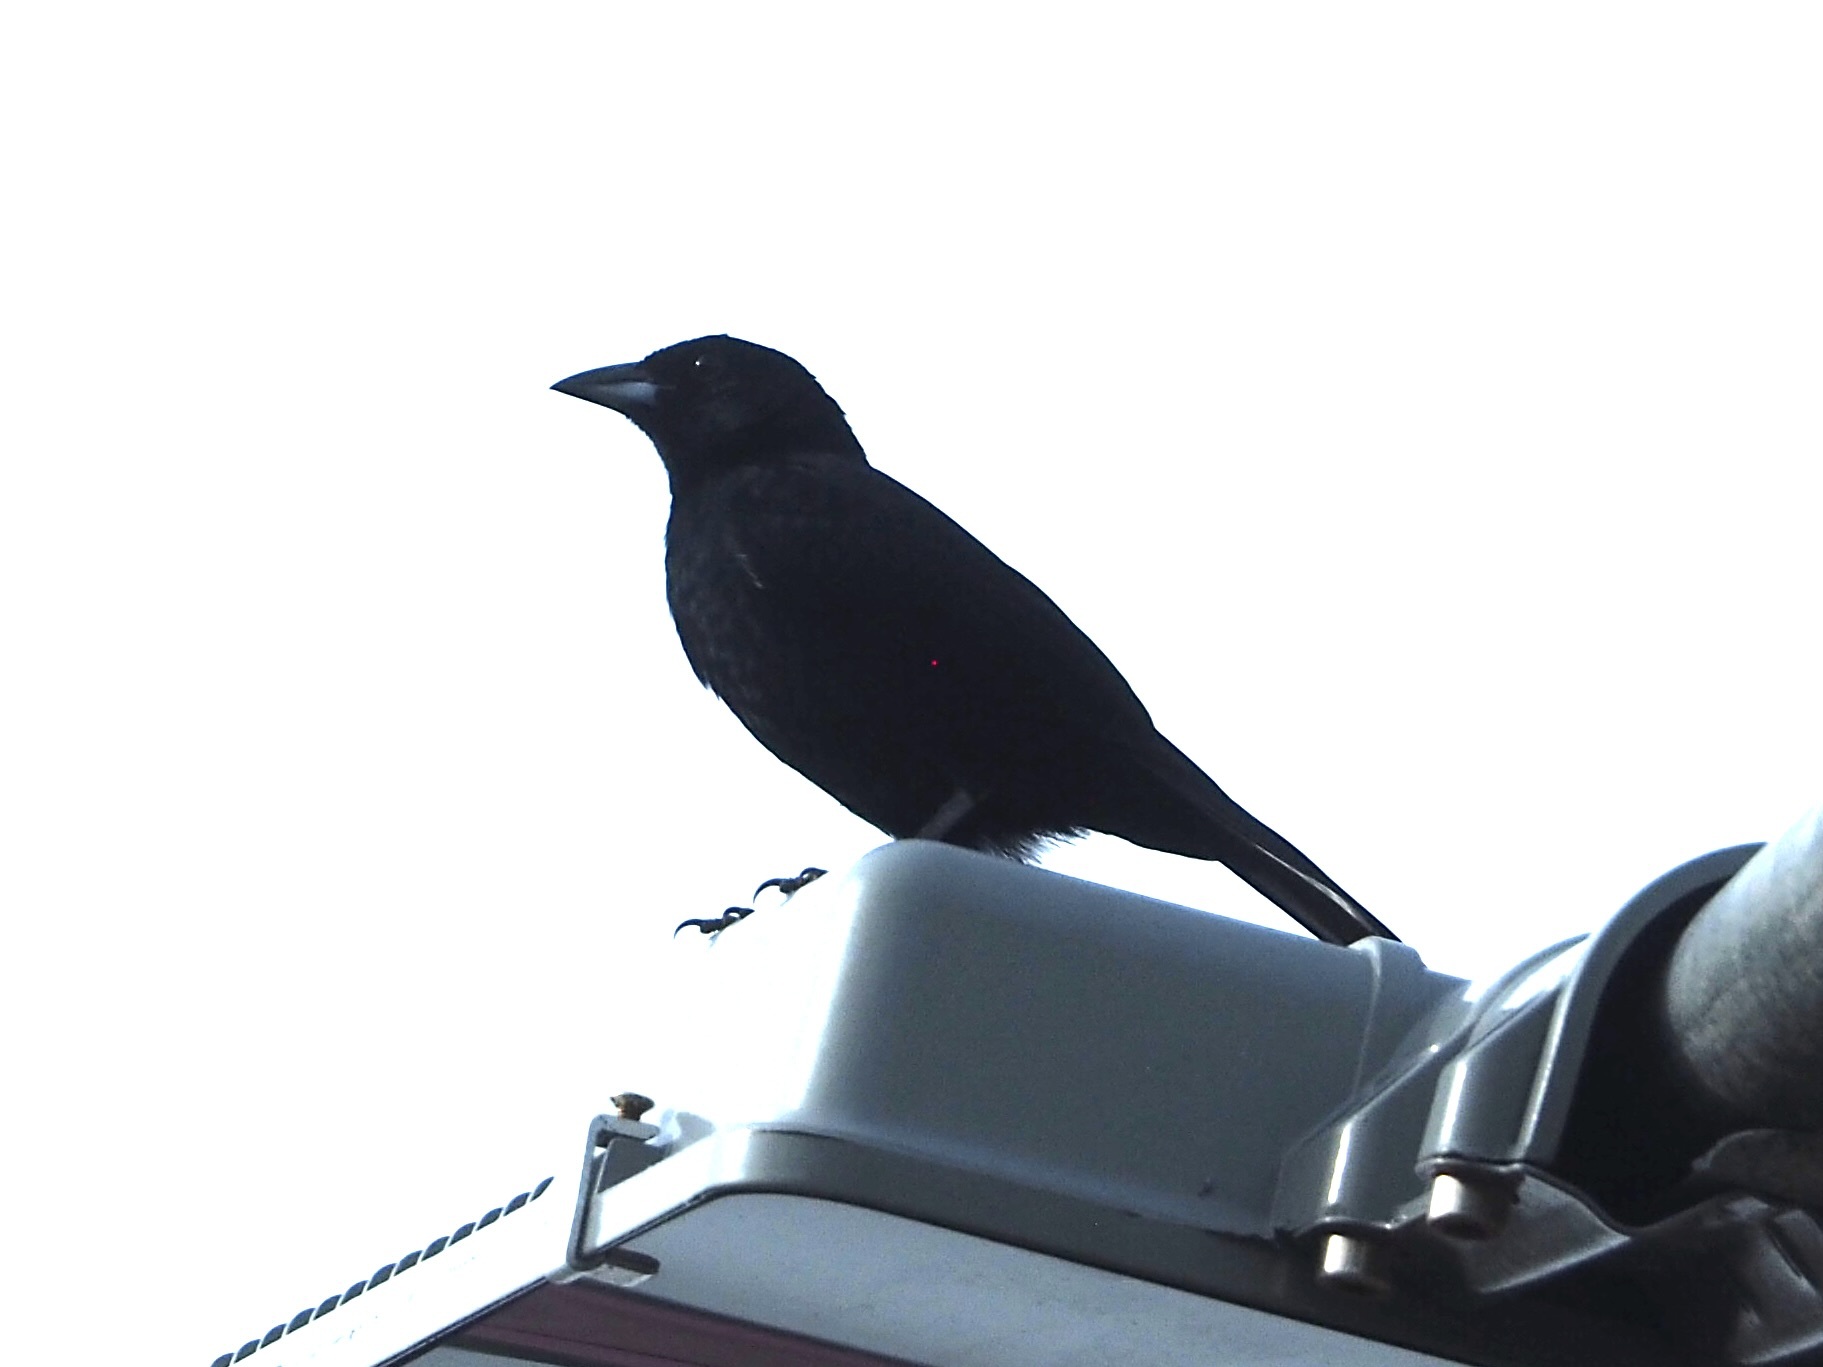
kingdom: Animalia
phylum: Chordata
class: Aves
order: Passeriformes
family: Thraupidae
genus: Tachyphonus
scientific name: Tachyphonus rufus
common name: White-lined tanager
